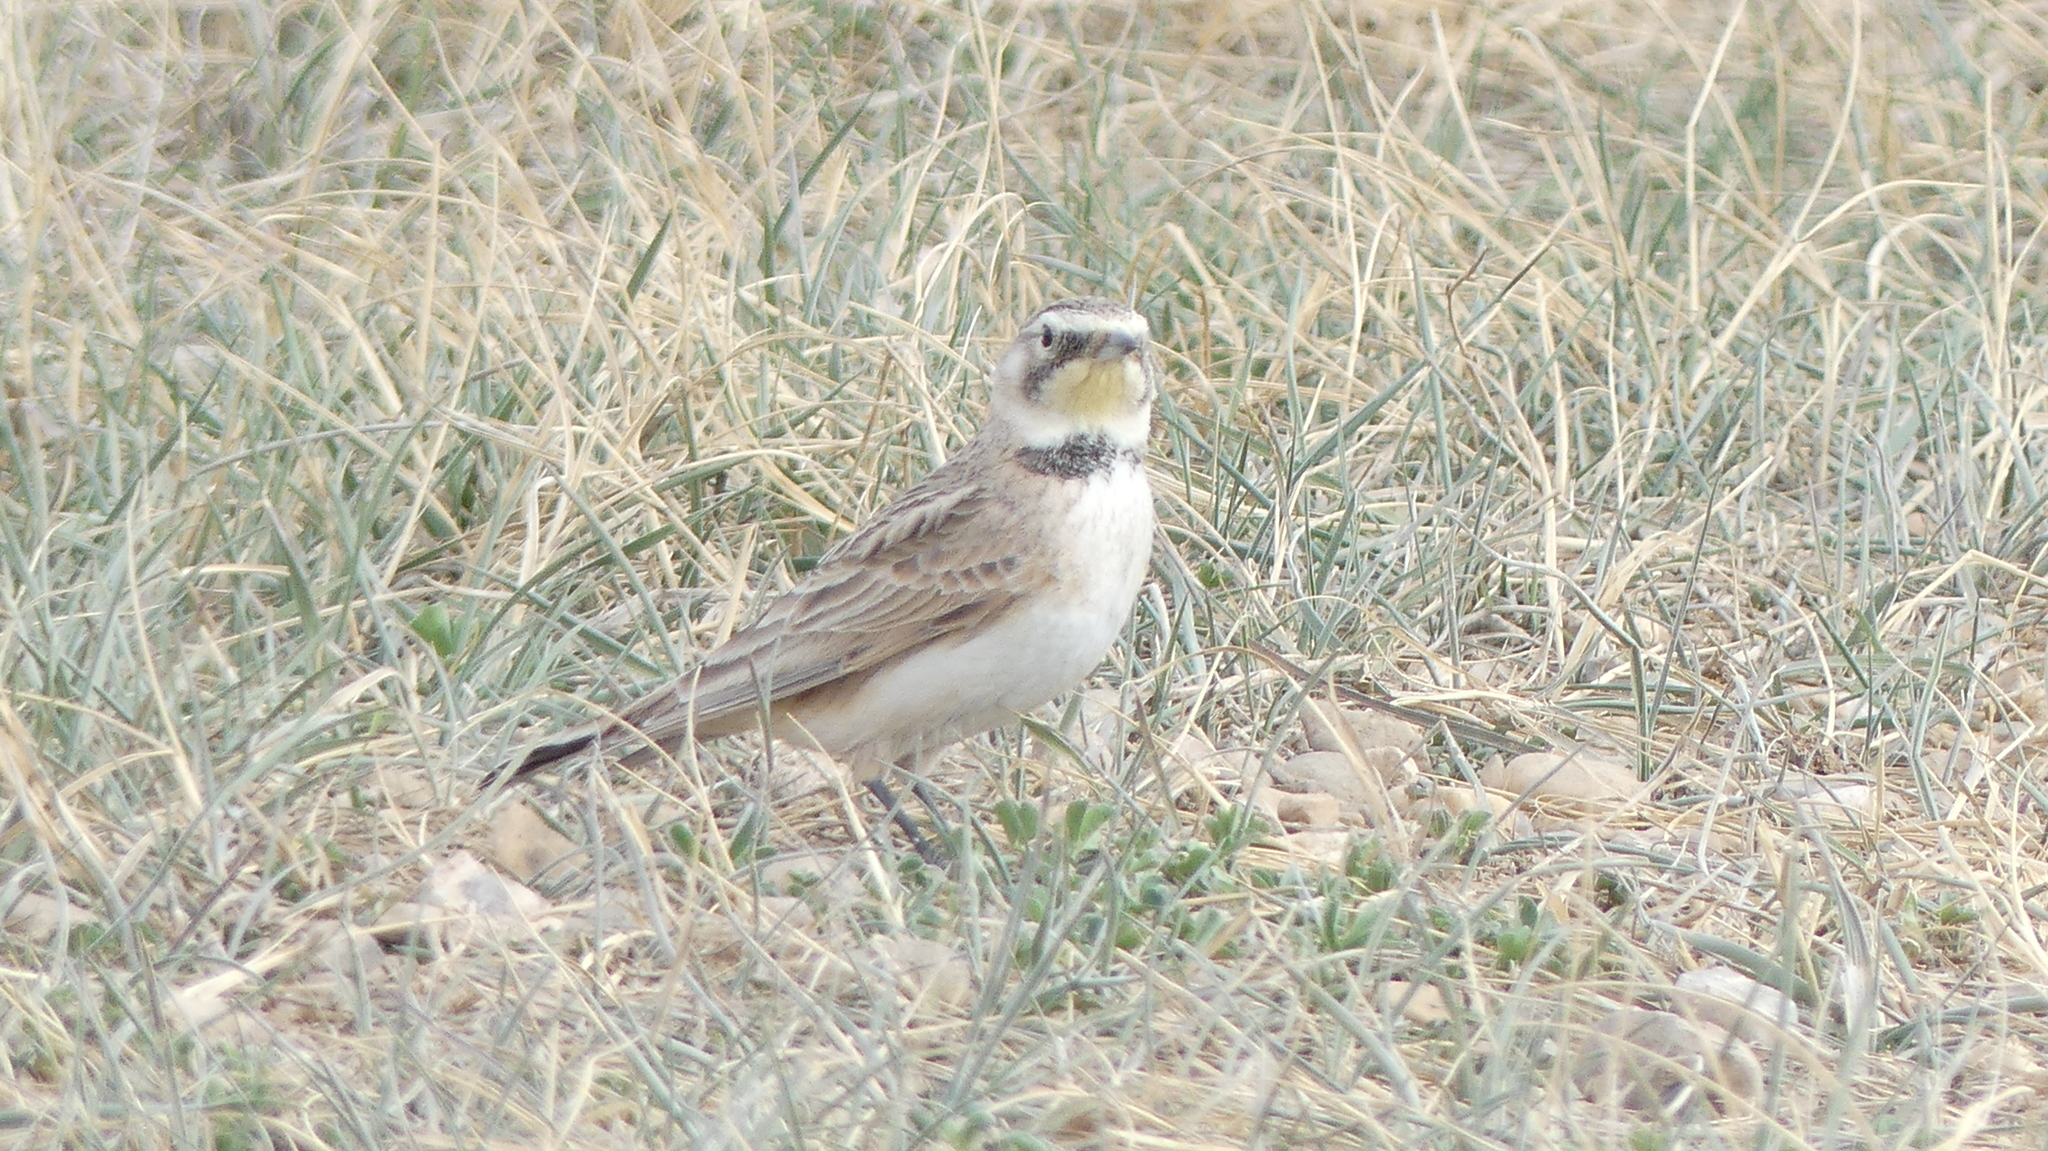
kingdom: Animalia
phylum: Chordata
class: Aves
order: Passeriformes
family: Alaudidae
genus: Eremophila
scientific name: Eremophila alpestris
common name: Horned lark
